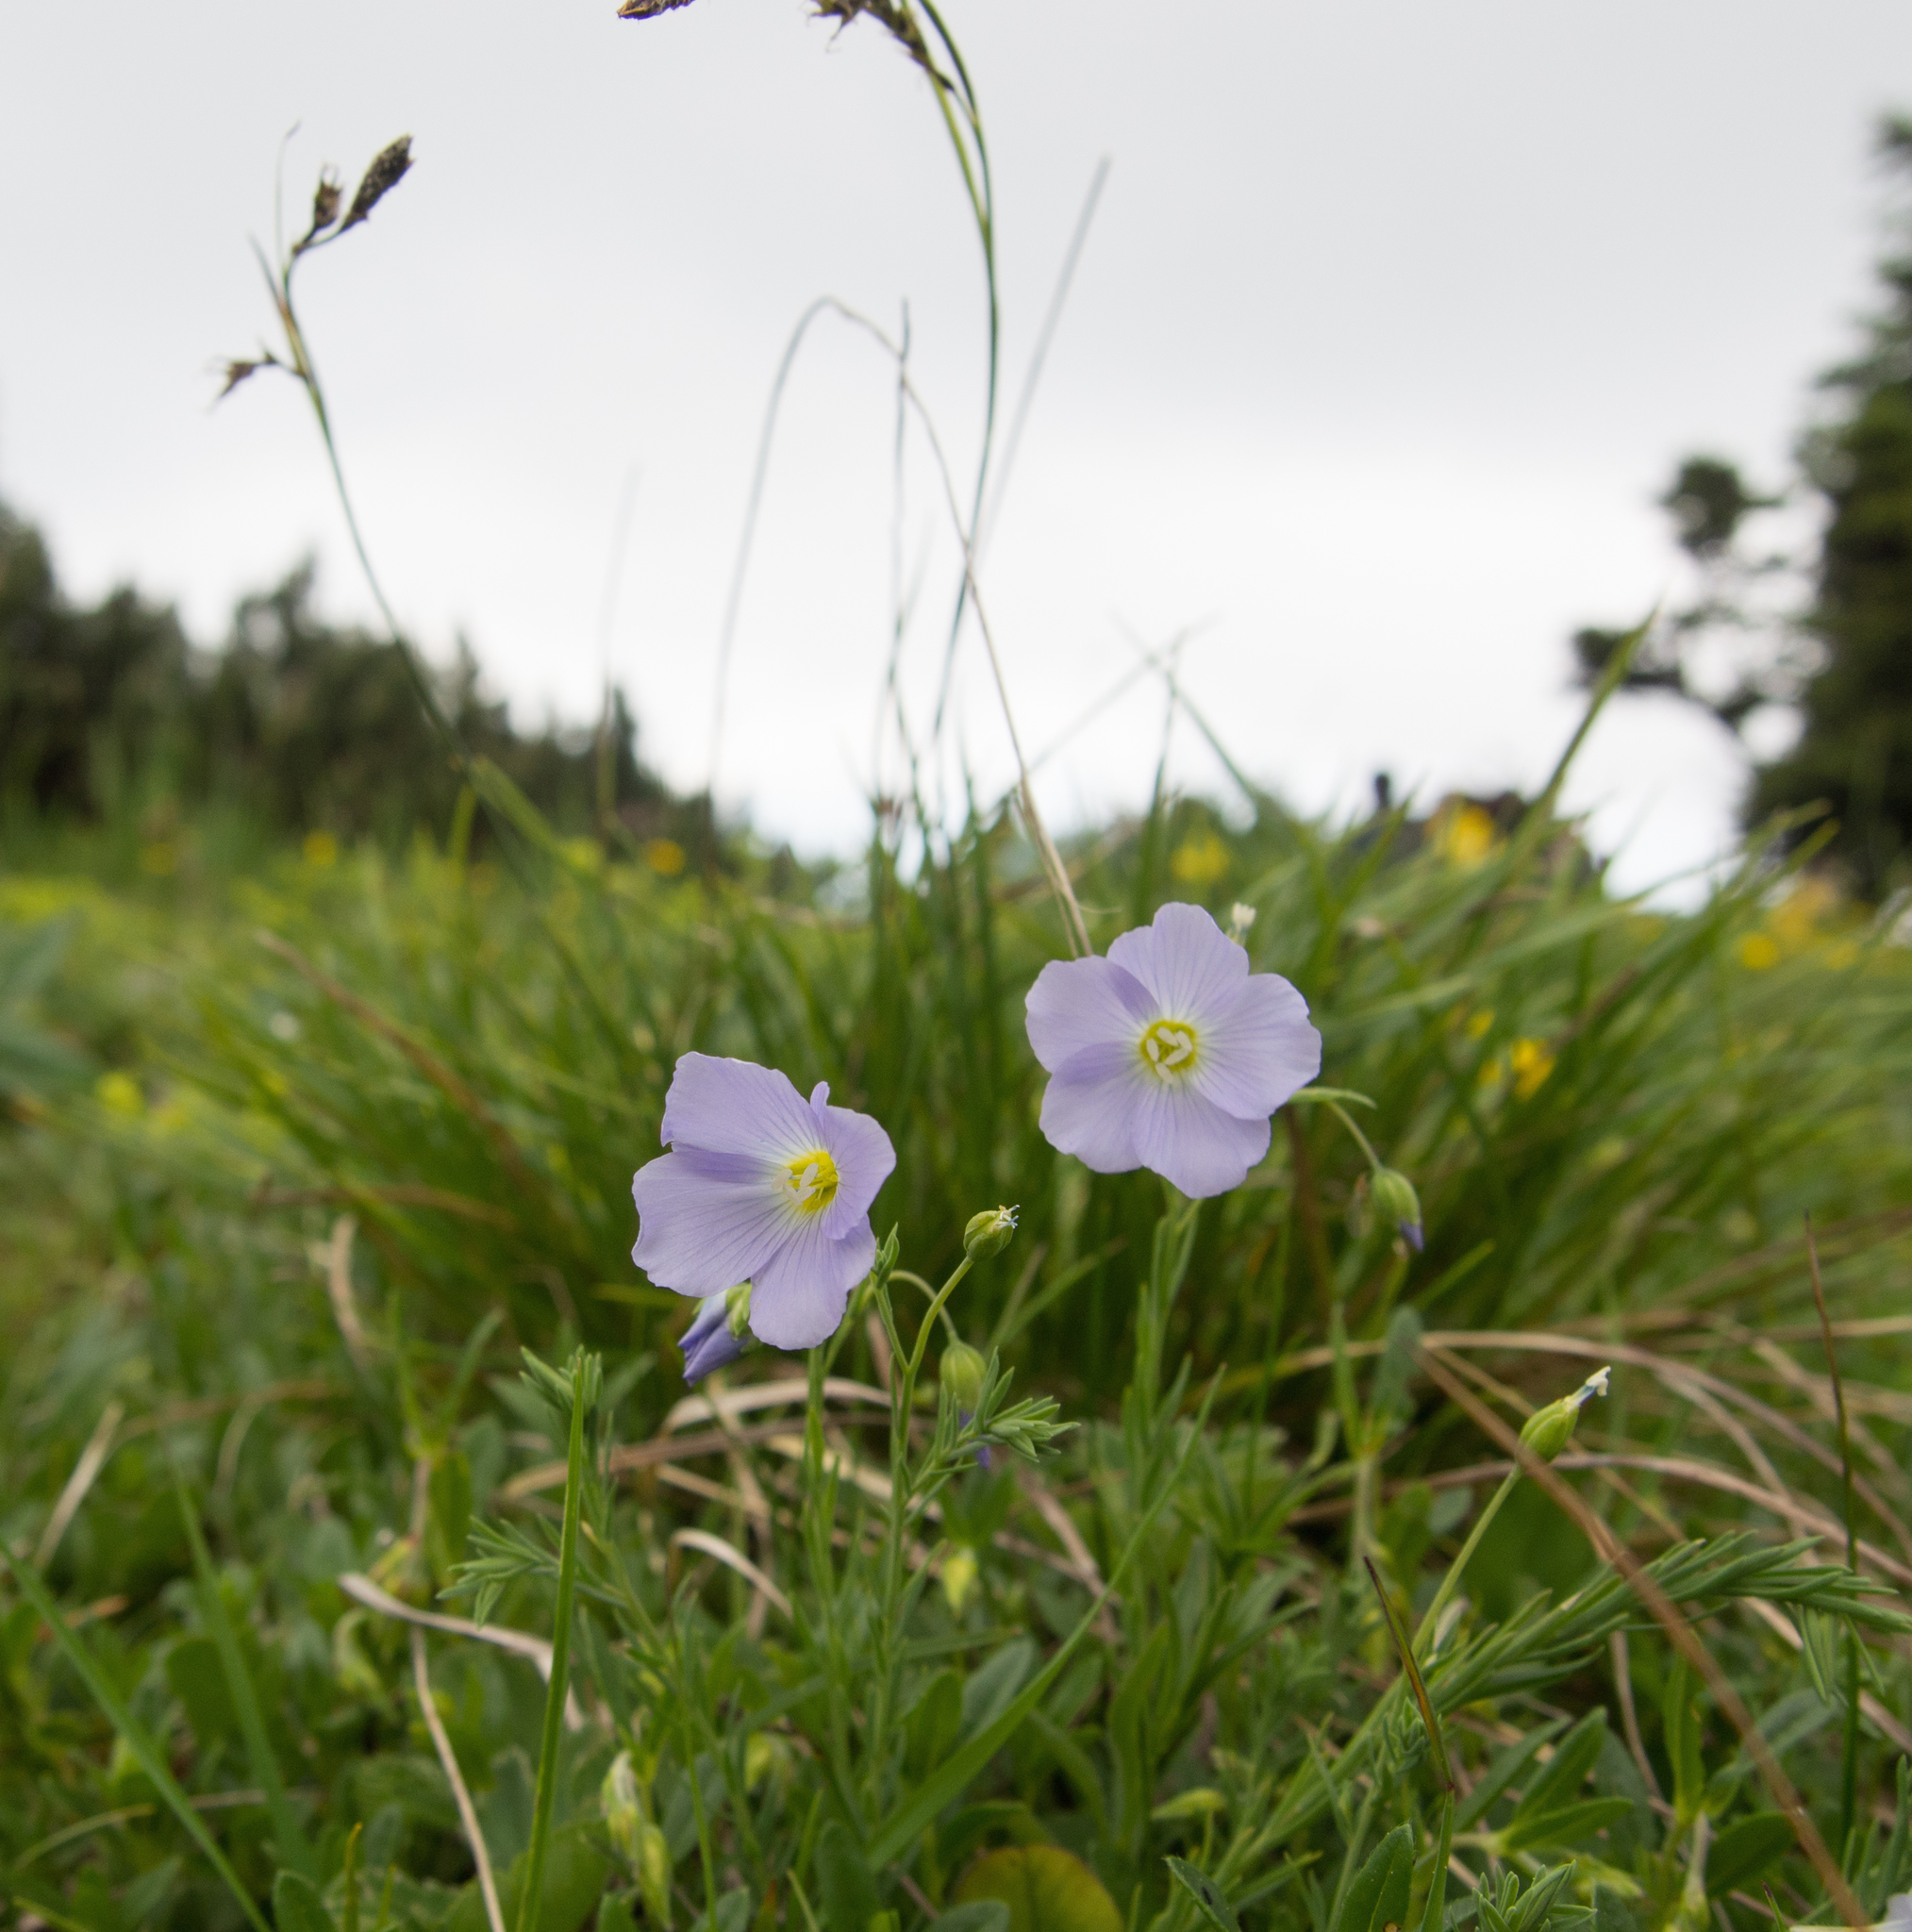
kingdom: Plantae
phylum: Tracheophyta
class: Magnoliopsida
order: Malpighiales
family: Linaceae
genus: Linum
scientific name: Linum alpinum
